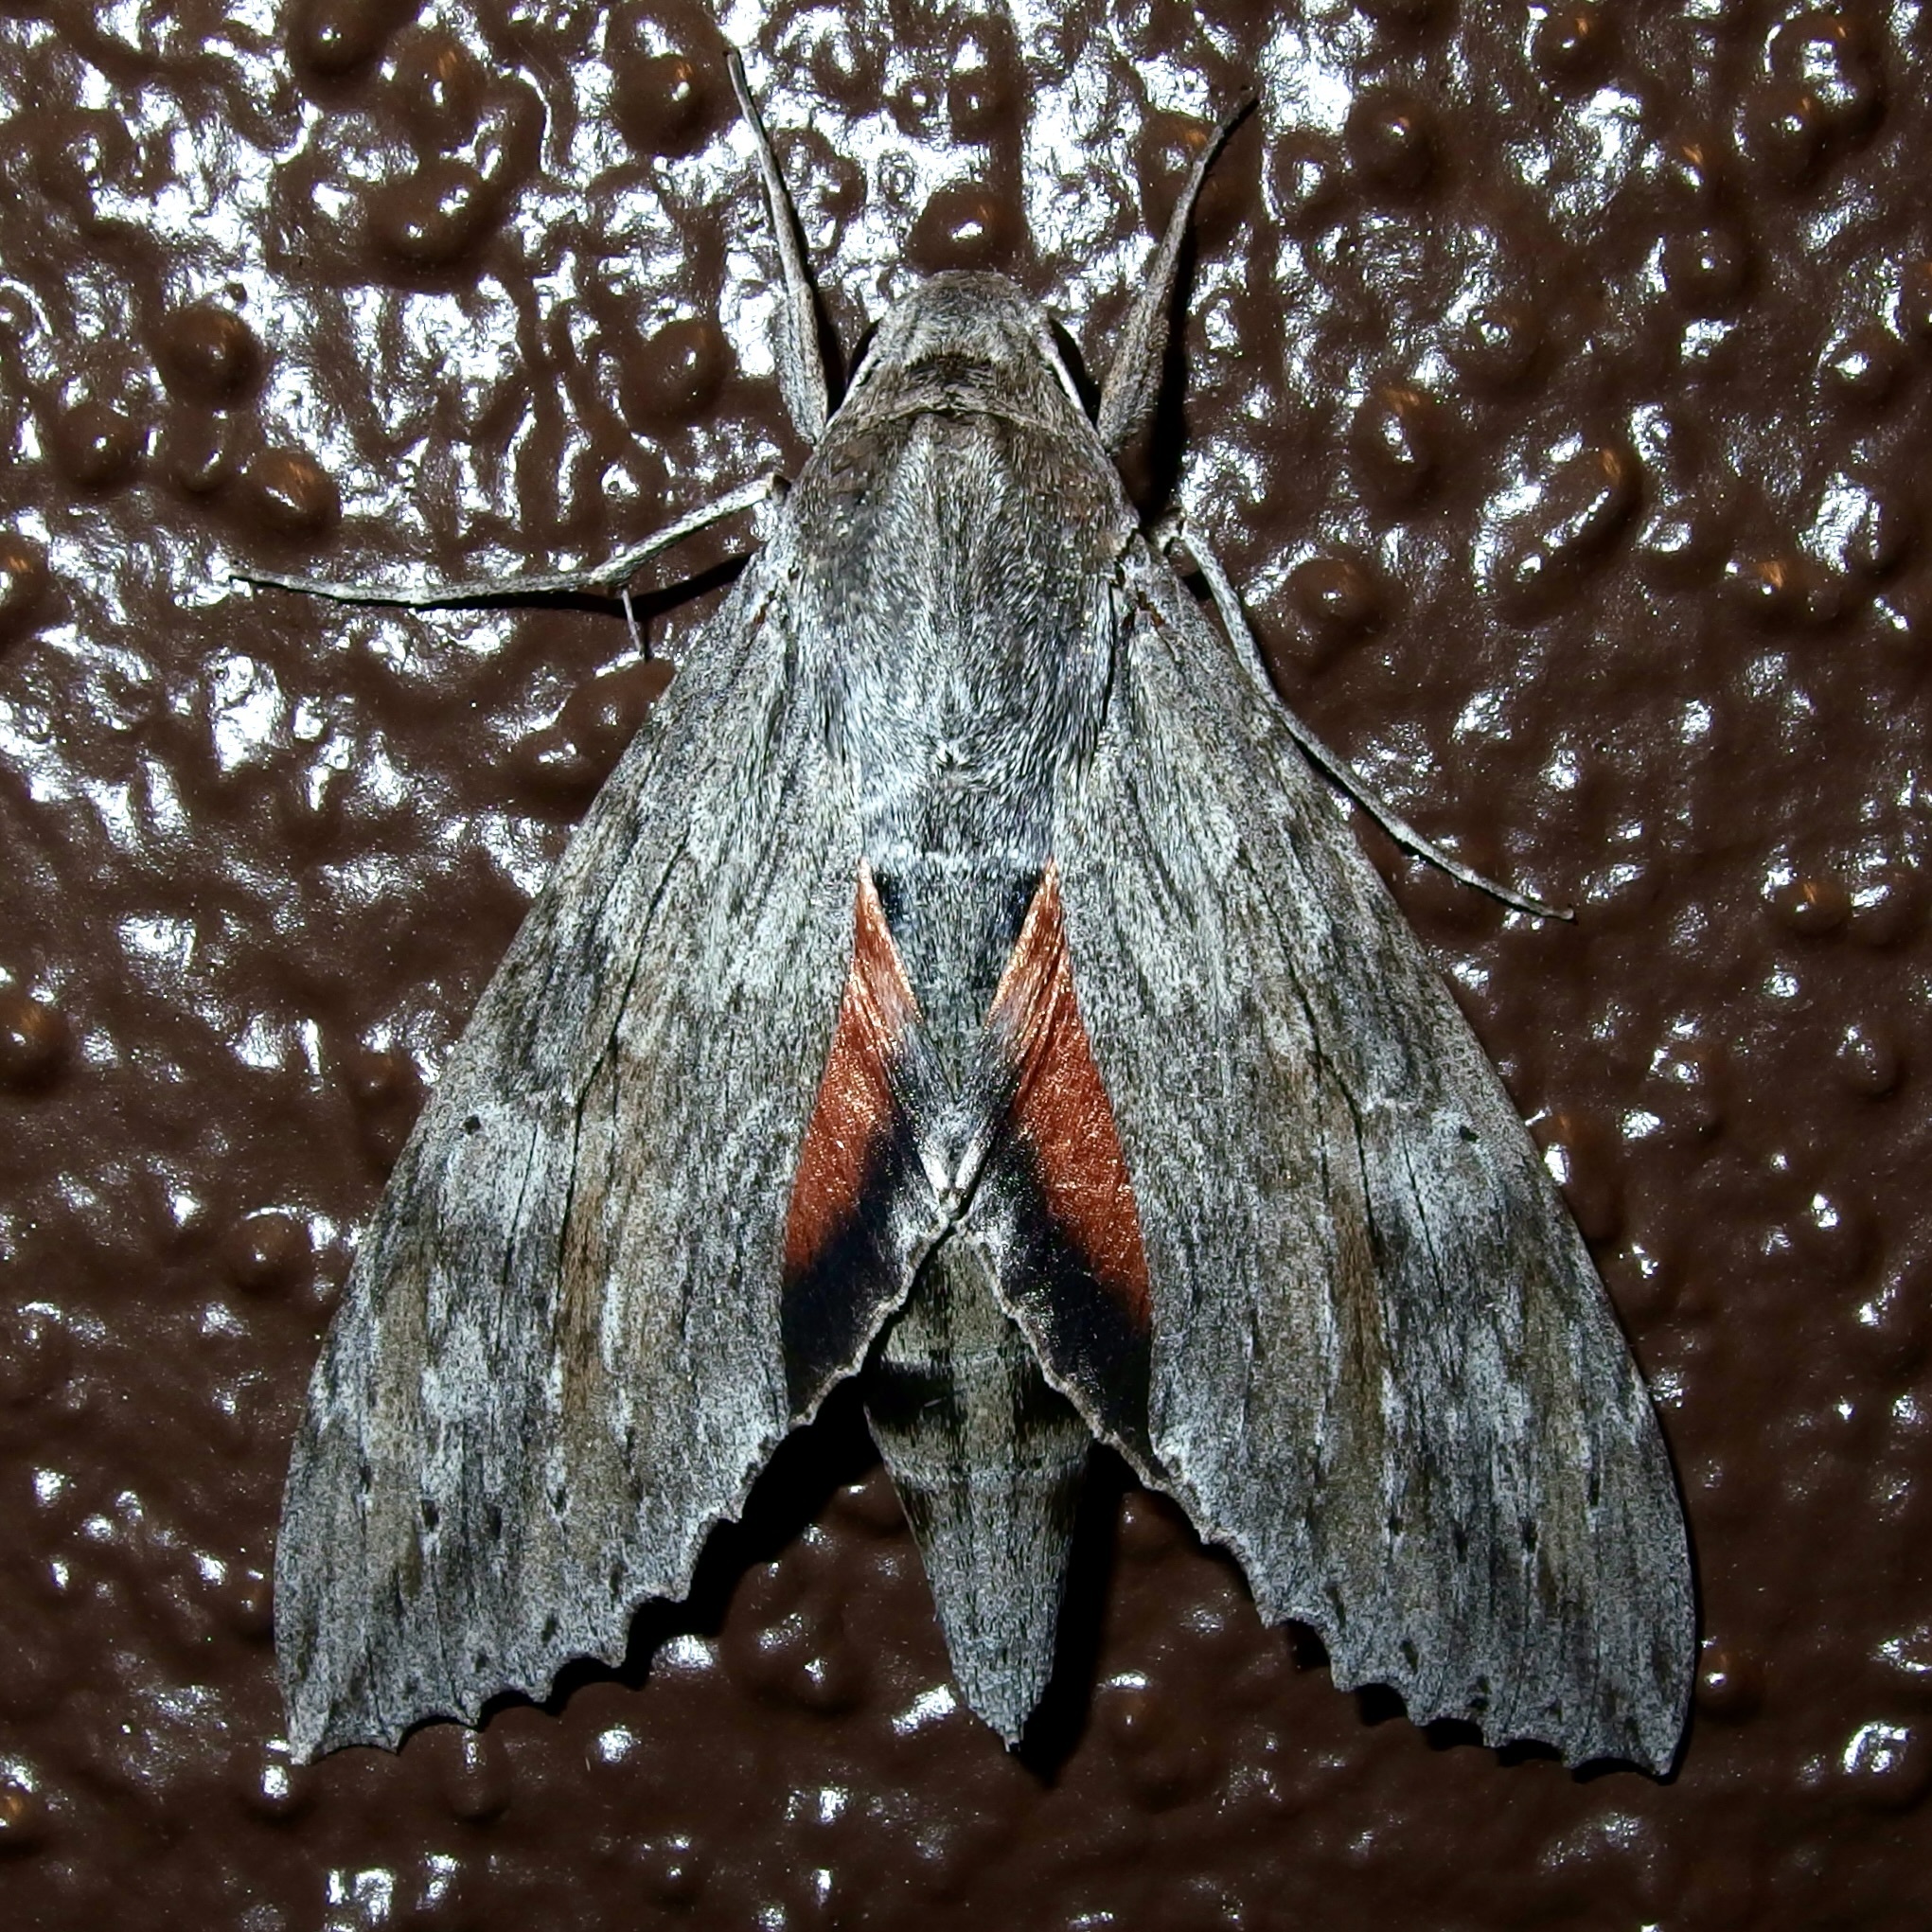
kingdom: Animalia
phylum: Arthropoda
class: Insecta
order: Lepidoptera
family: Sphingidae
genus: Erinnyis
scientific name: Erinnyis ello
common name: Ello sphinx
